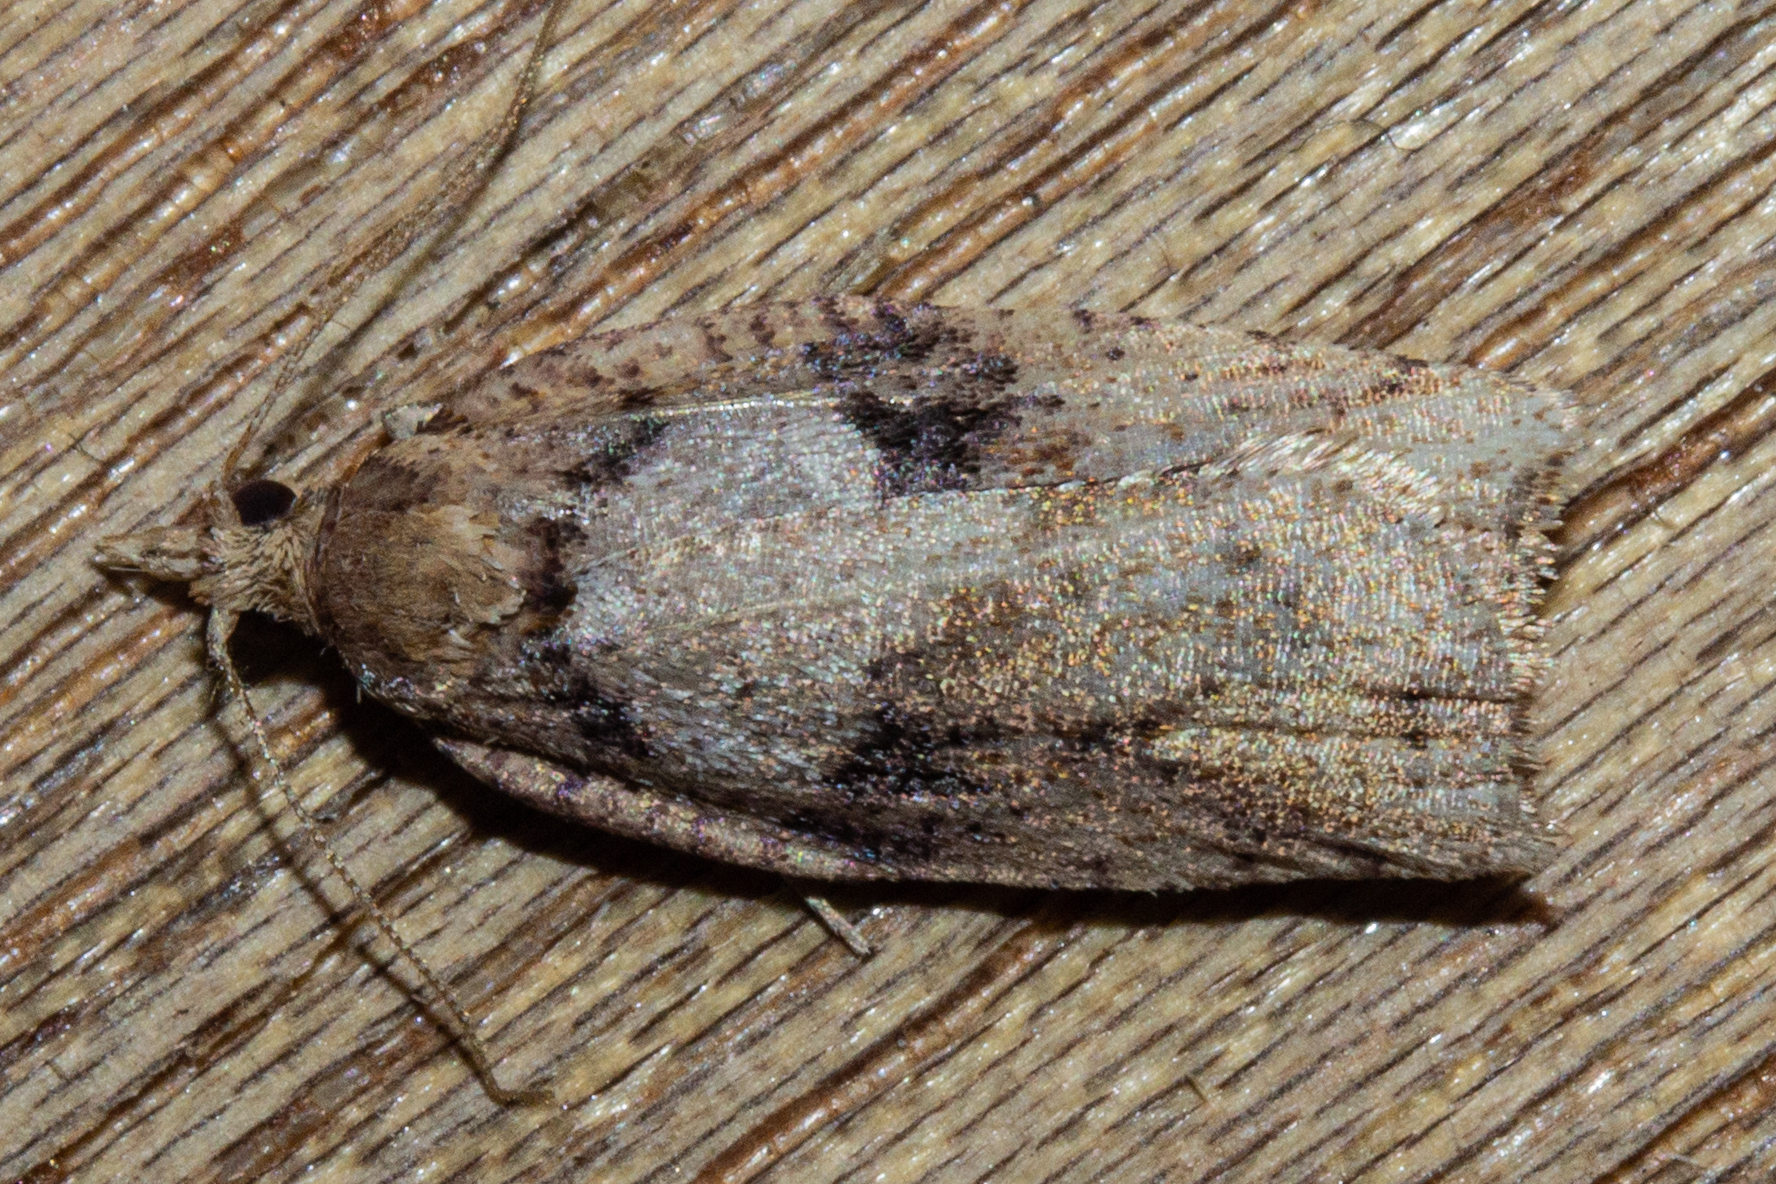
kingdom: Animalia
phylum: Arthropoda
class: Insecta
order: Lepidoptera
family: Tortricidae
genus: Ctenopseustis
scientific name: Ctenopseustis obliquana
